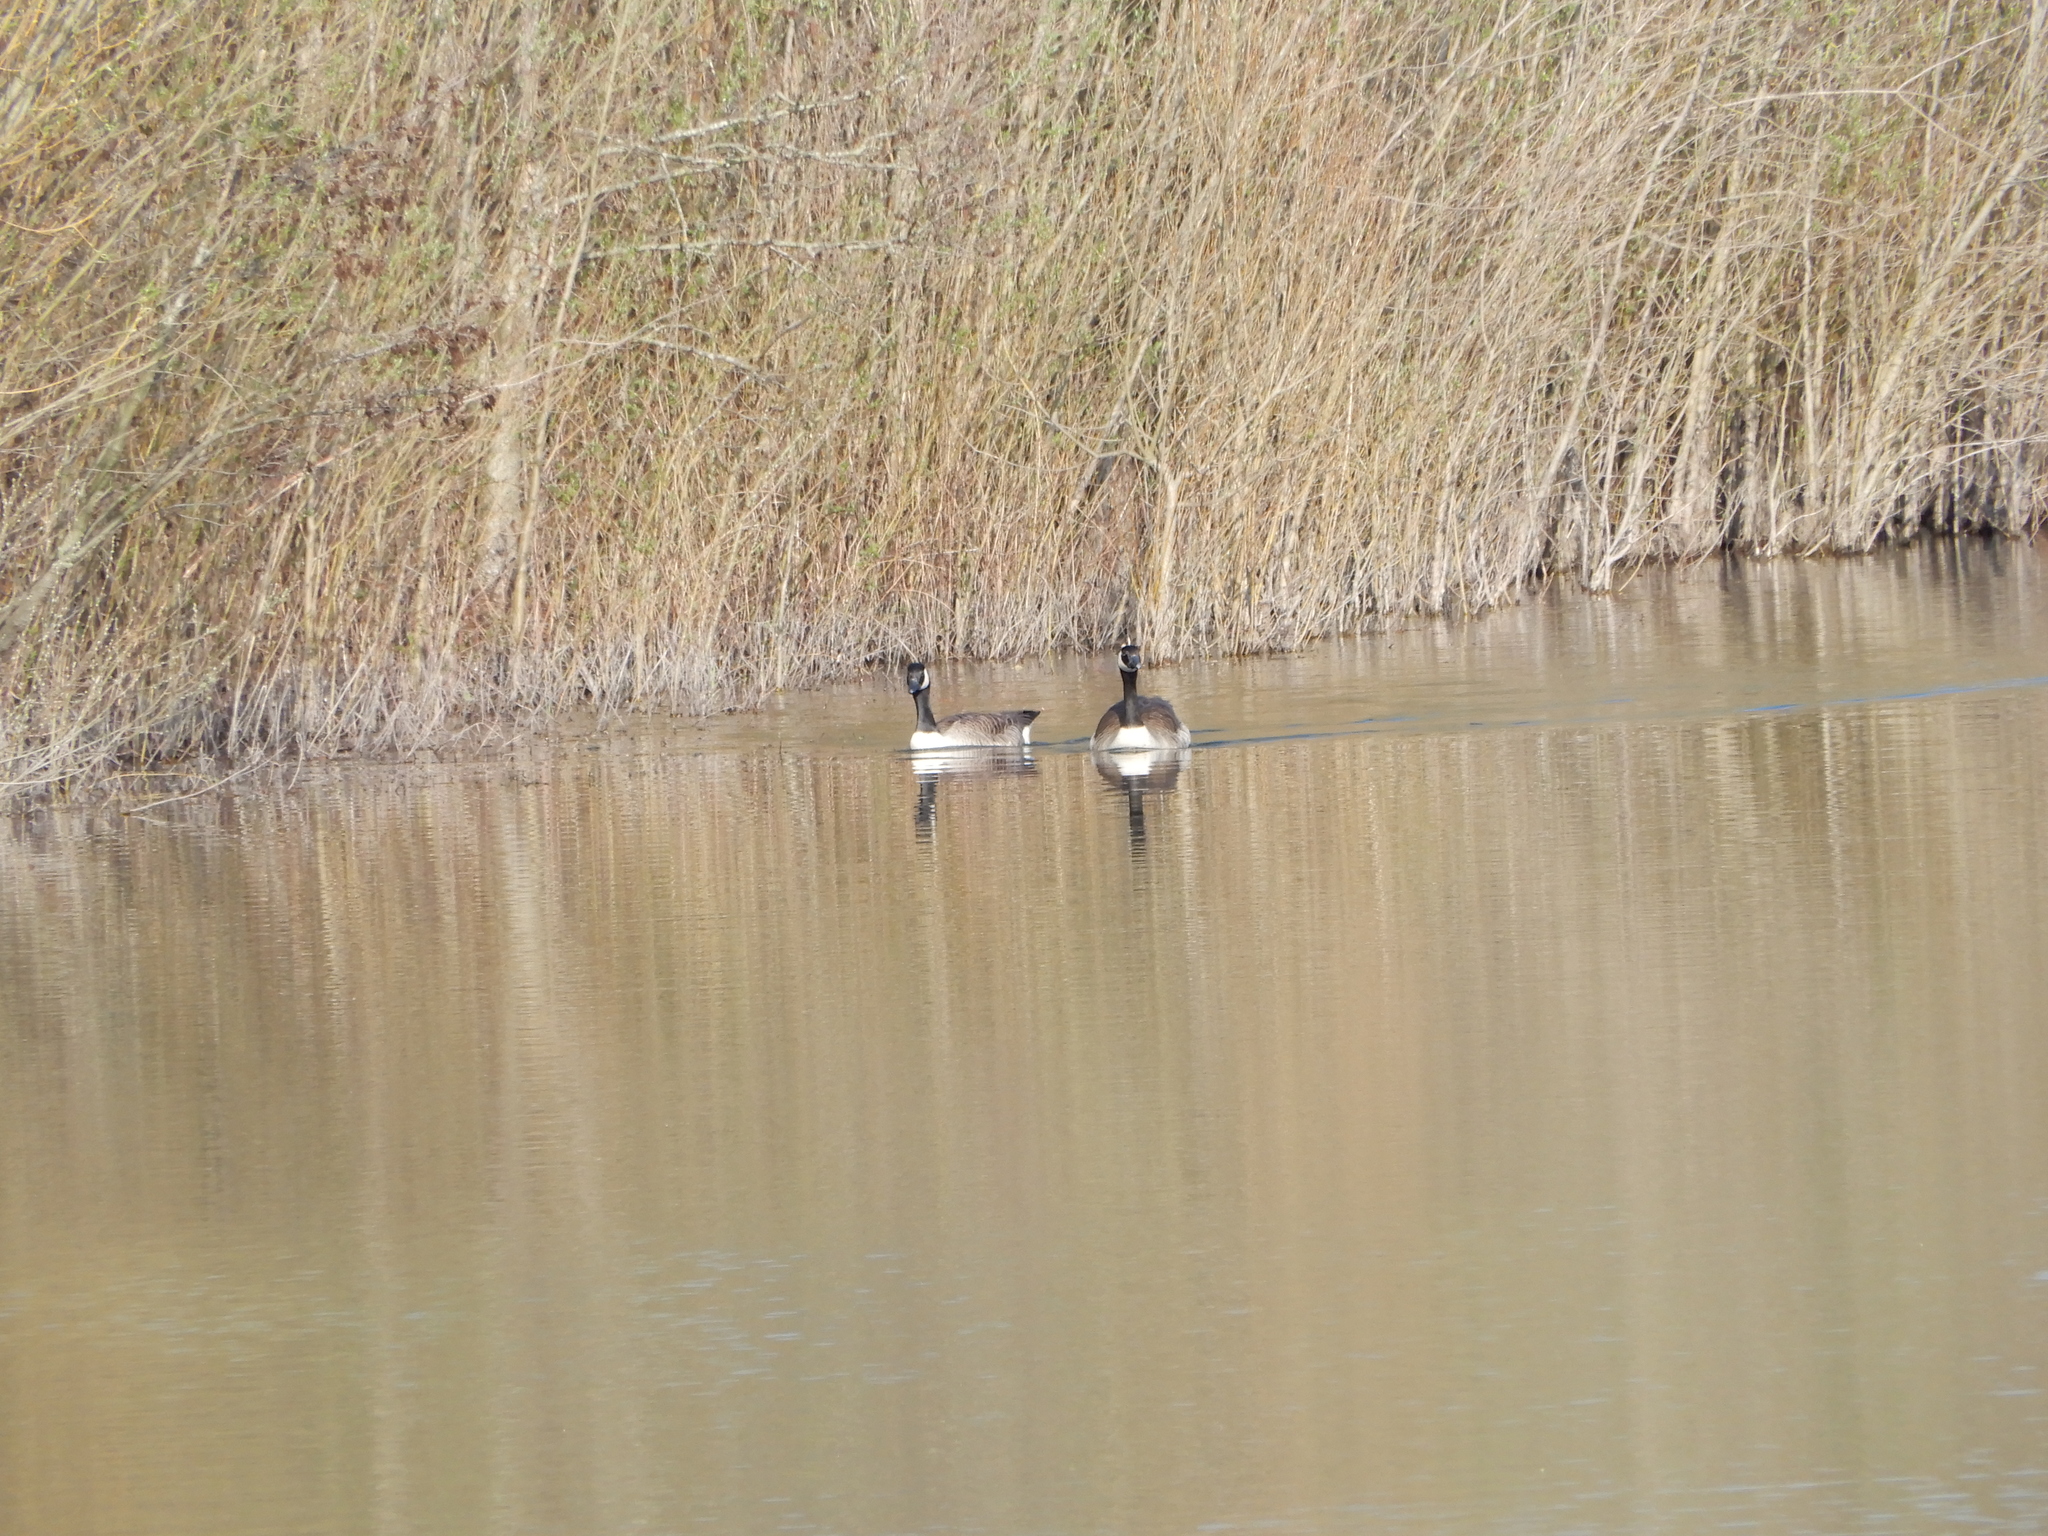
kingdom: Animalia
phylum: Chordata
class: Aves
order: Anseriformes
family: Anatidae
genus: Branta
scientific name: Branta canadensis
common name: Canada goose
